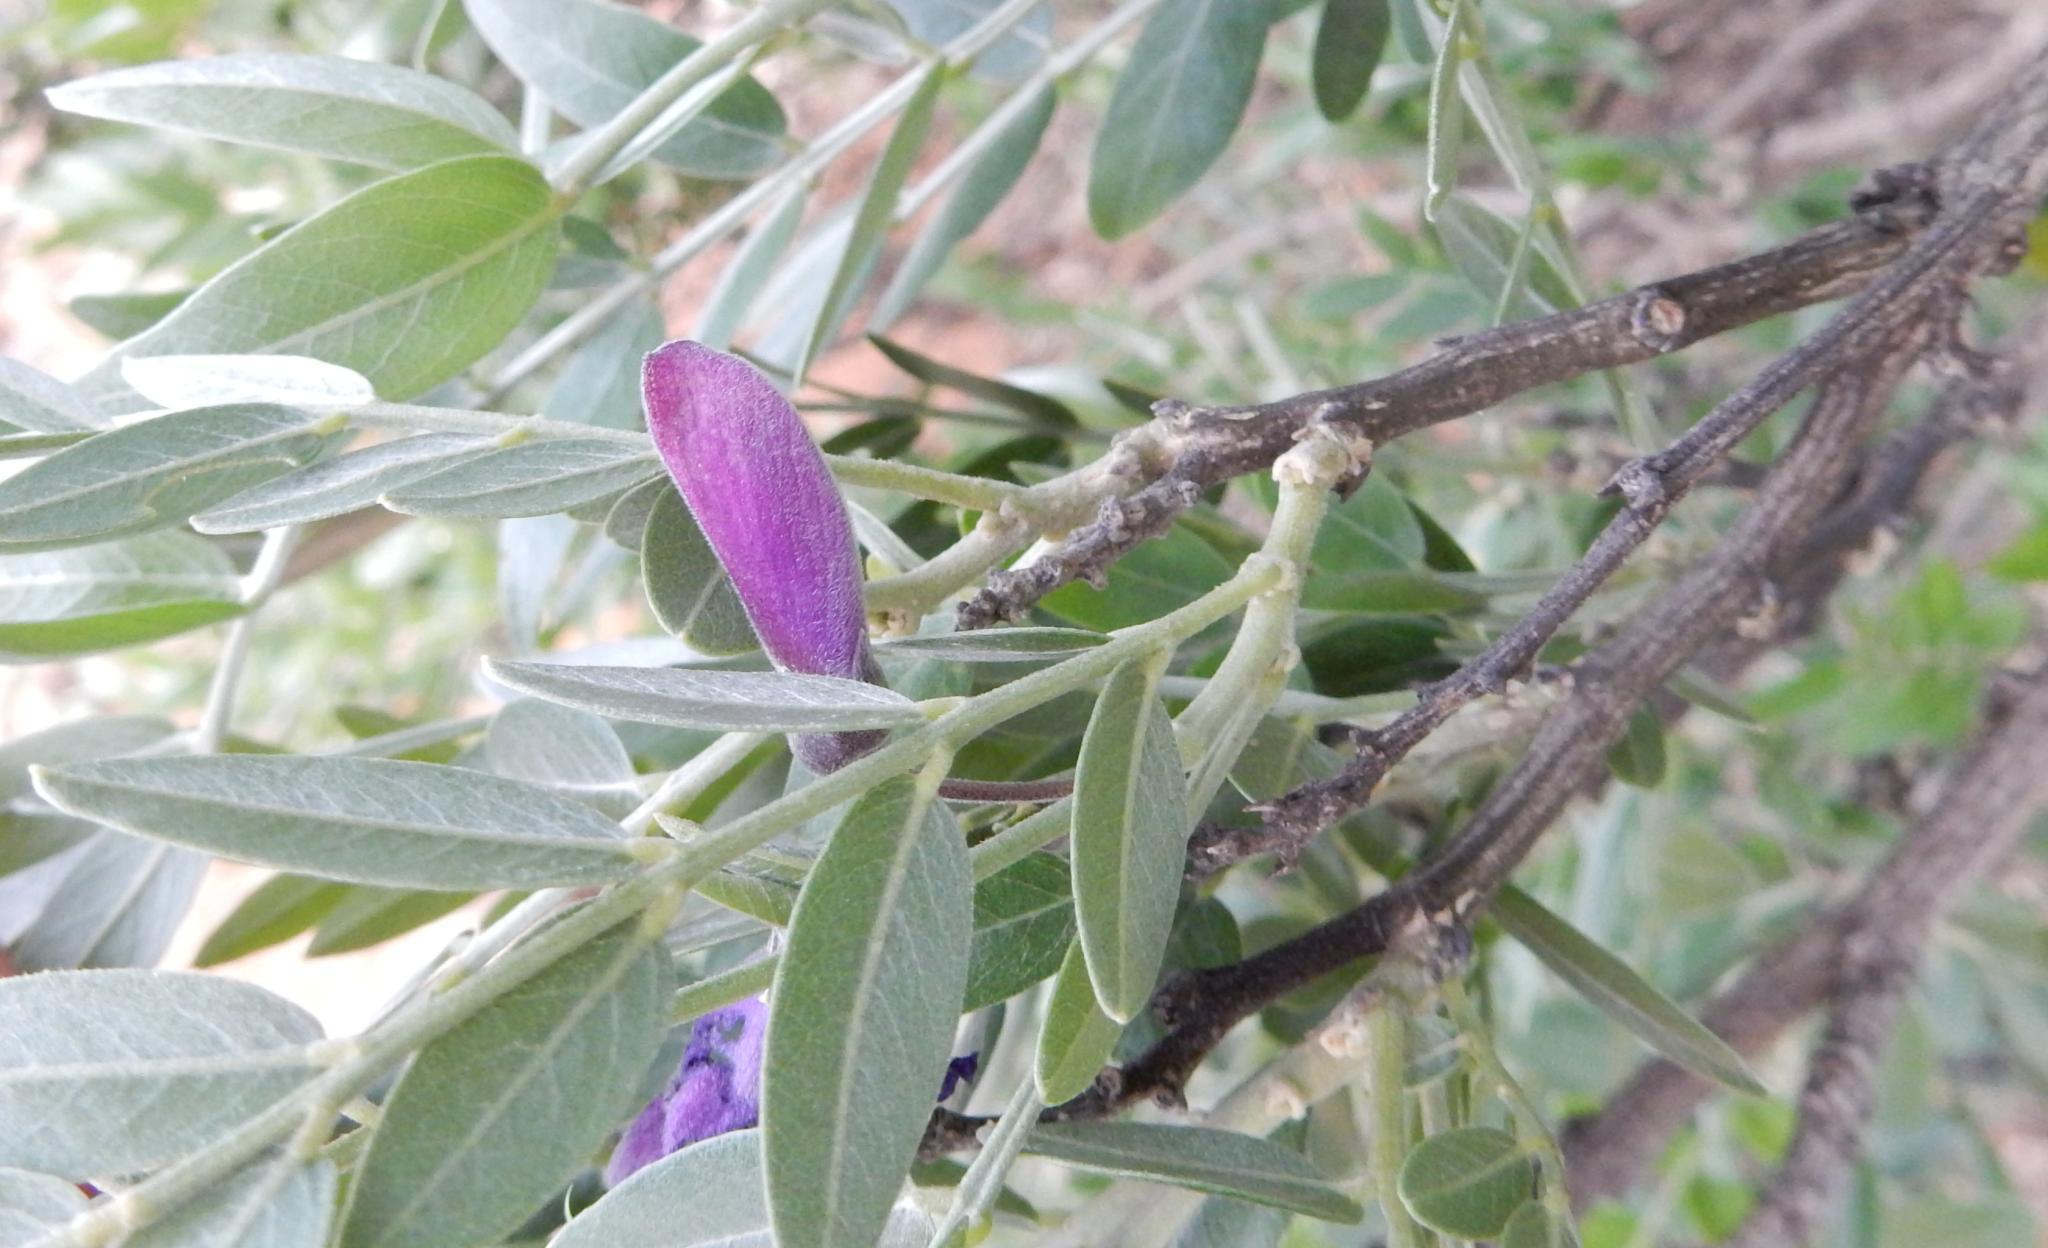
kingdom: Plantae
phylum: Tracheophyta
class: Magnoliopsida
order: Fabales
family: Fabaceae
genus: Mundulea
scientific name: Mundulea sericea
